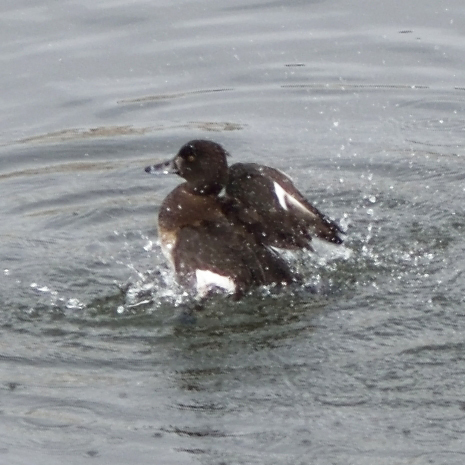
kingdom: Animalia
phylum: Chordata
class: Aves
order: Anseriformes
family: Anatidae
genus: Aythya
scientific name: Aythya fuligula
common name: Tufted duck
